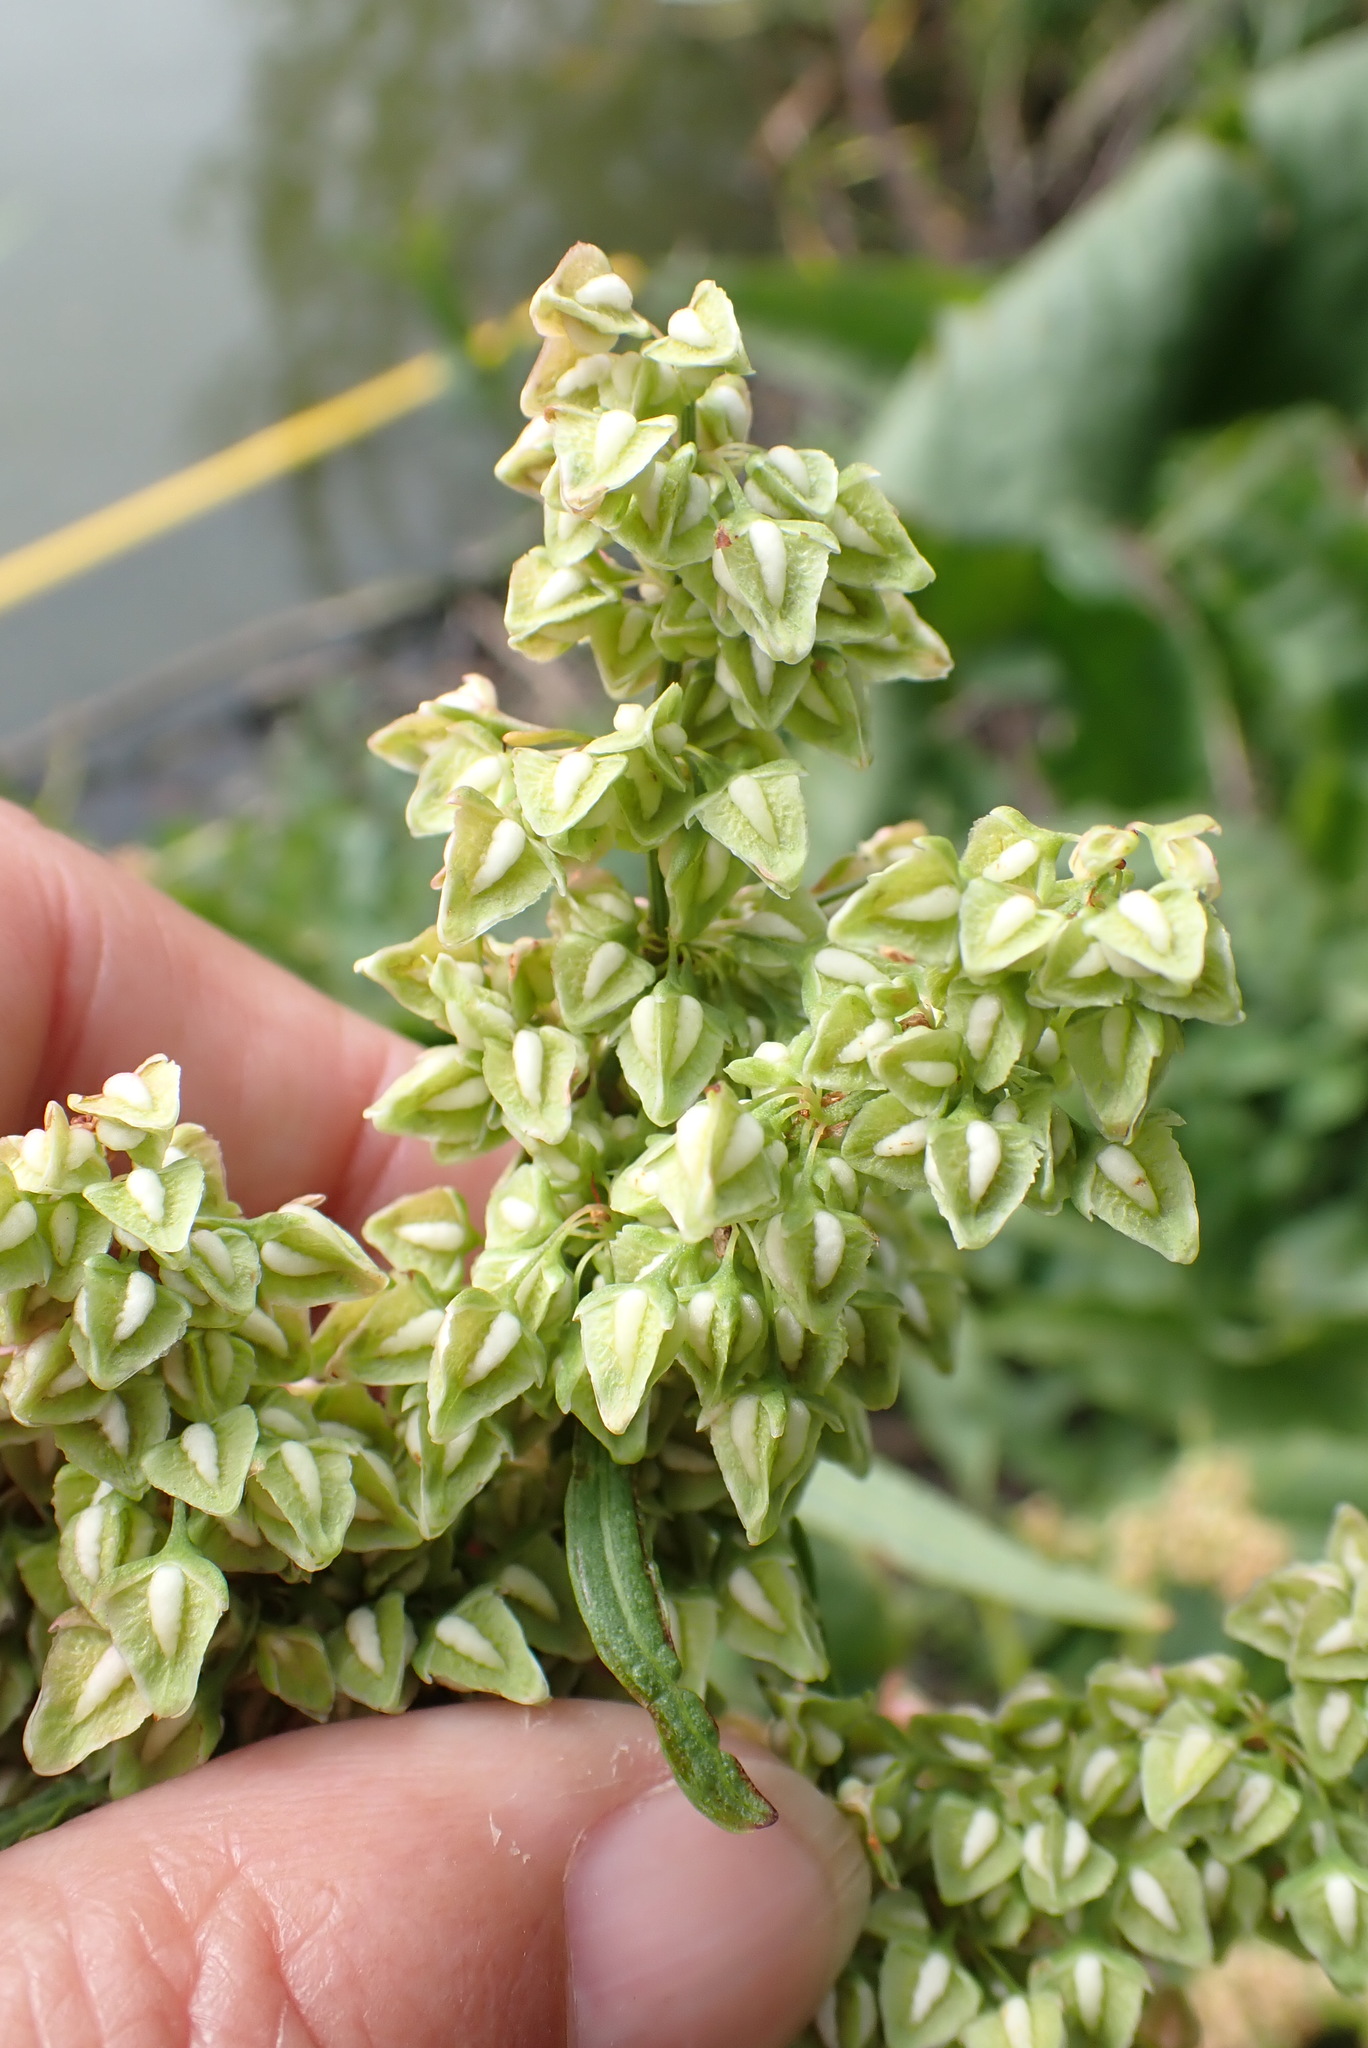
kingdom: Plantae
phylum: Tracheophyta
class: Magnoliopsida
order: Caryophyllales
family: Polygonaceae
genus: Rumex
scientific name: Rumex hydrolapathum
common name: Water dock
